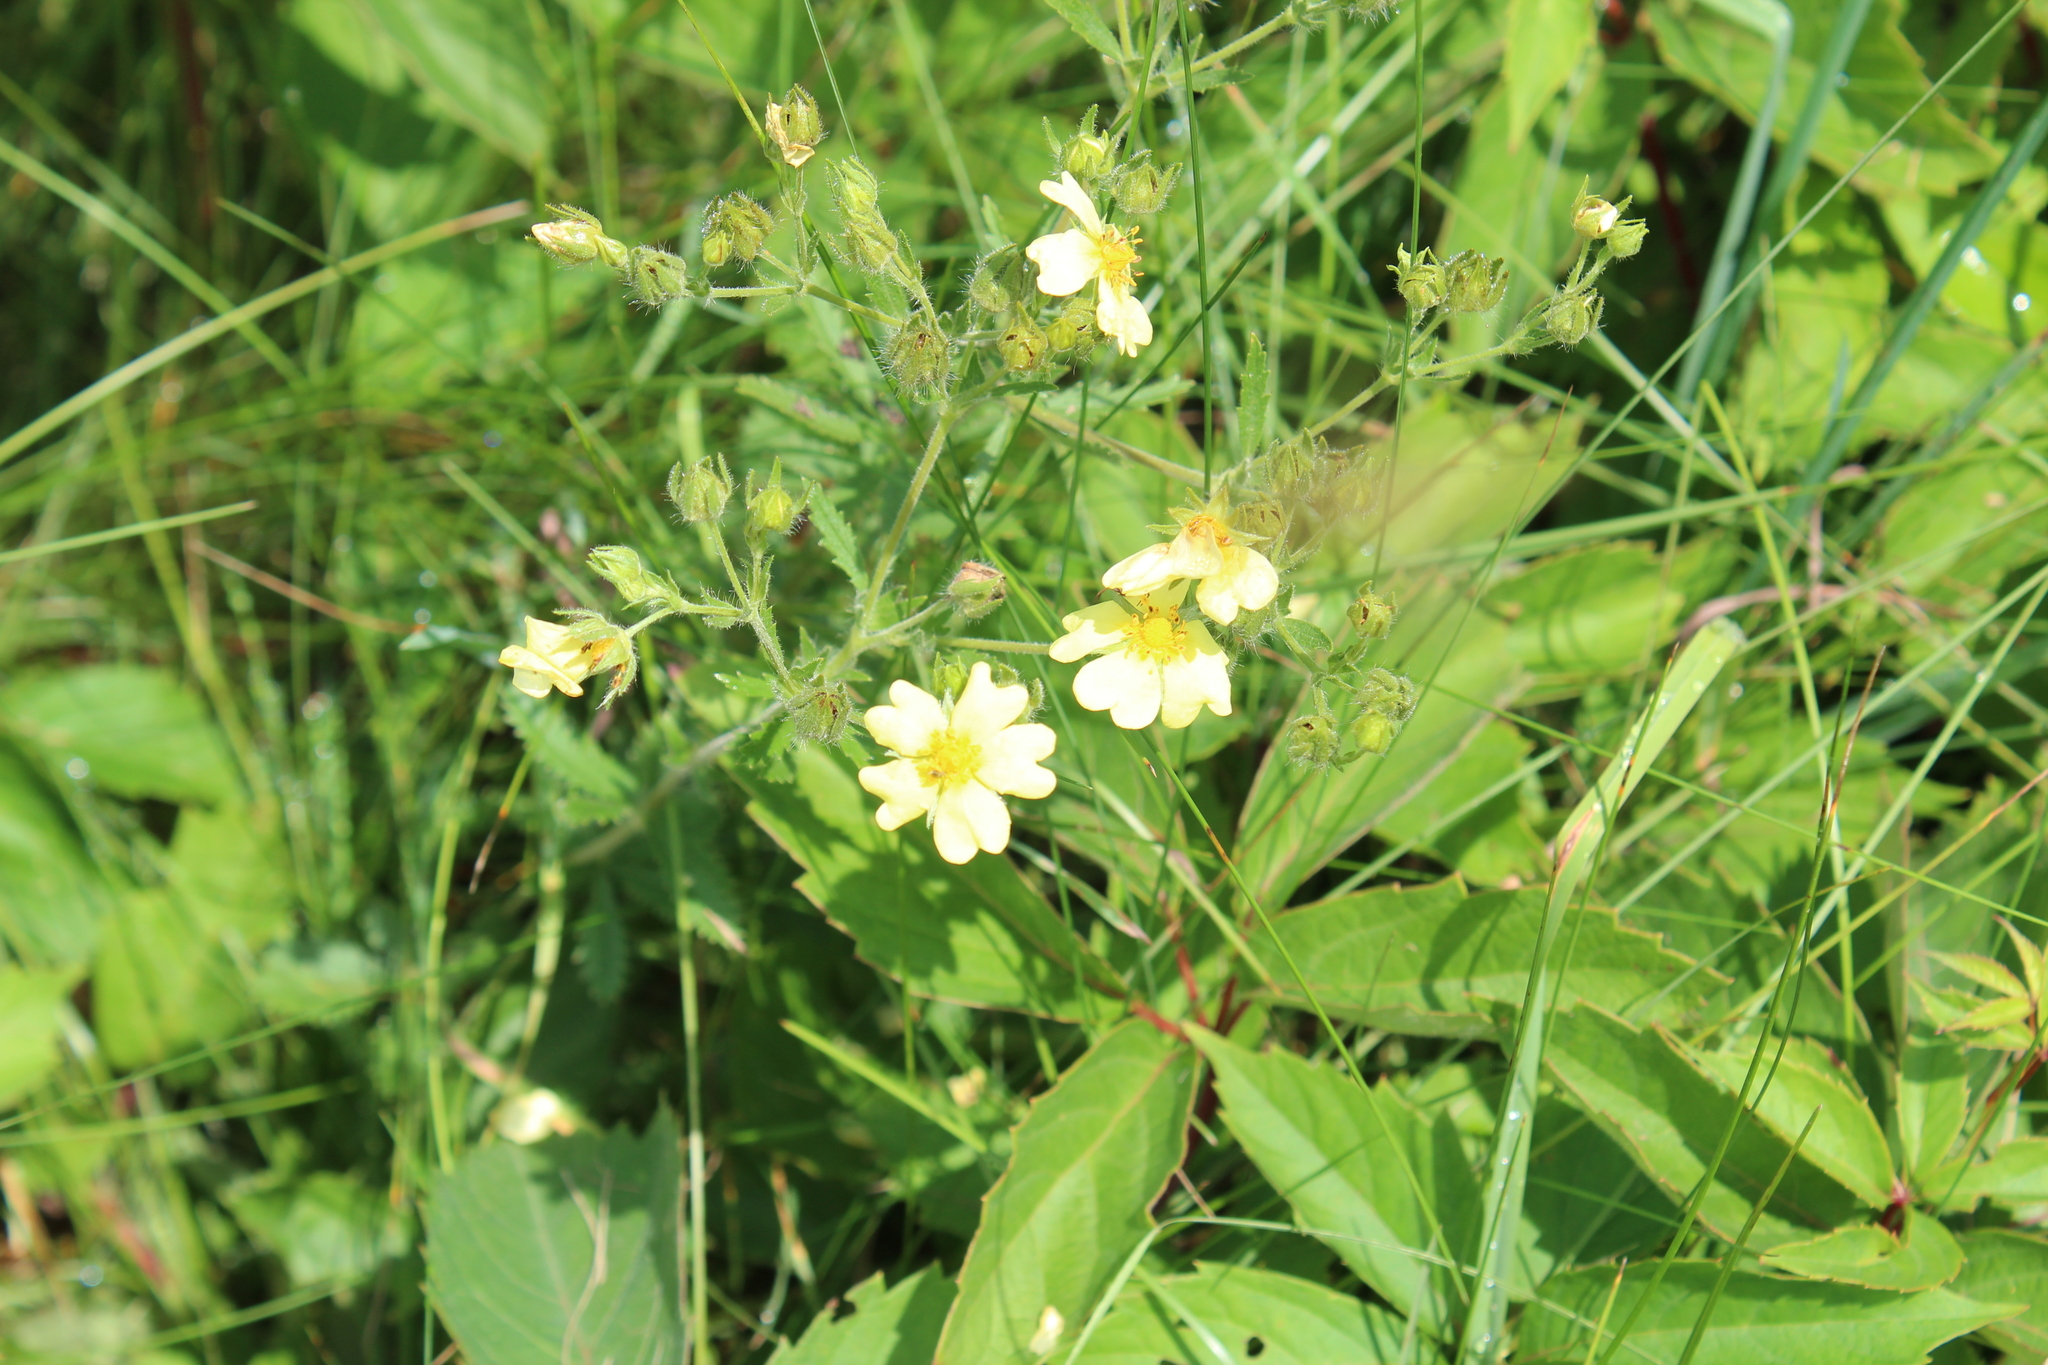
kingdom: Plantae
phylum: Tracheophyta
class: Magnoliopsida
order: Rosales
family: Rosaceae
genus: Potentilla
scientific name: Potentilla recta
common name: Sulphur cinquefoil
